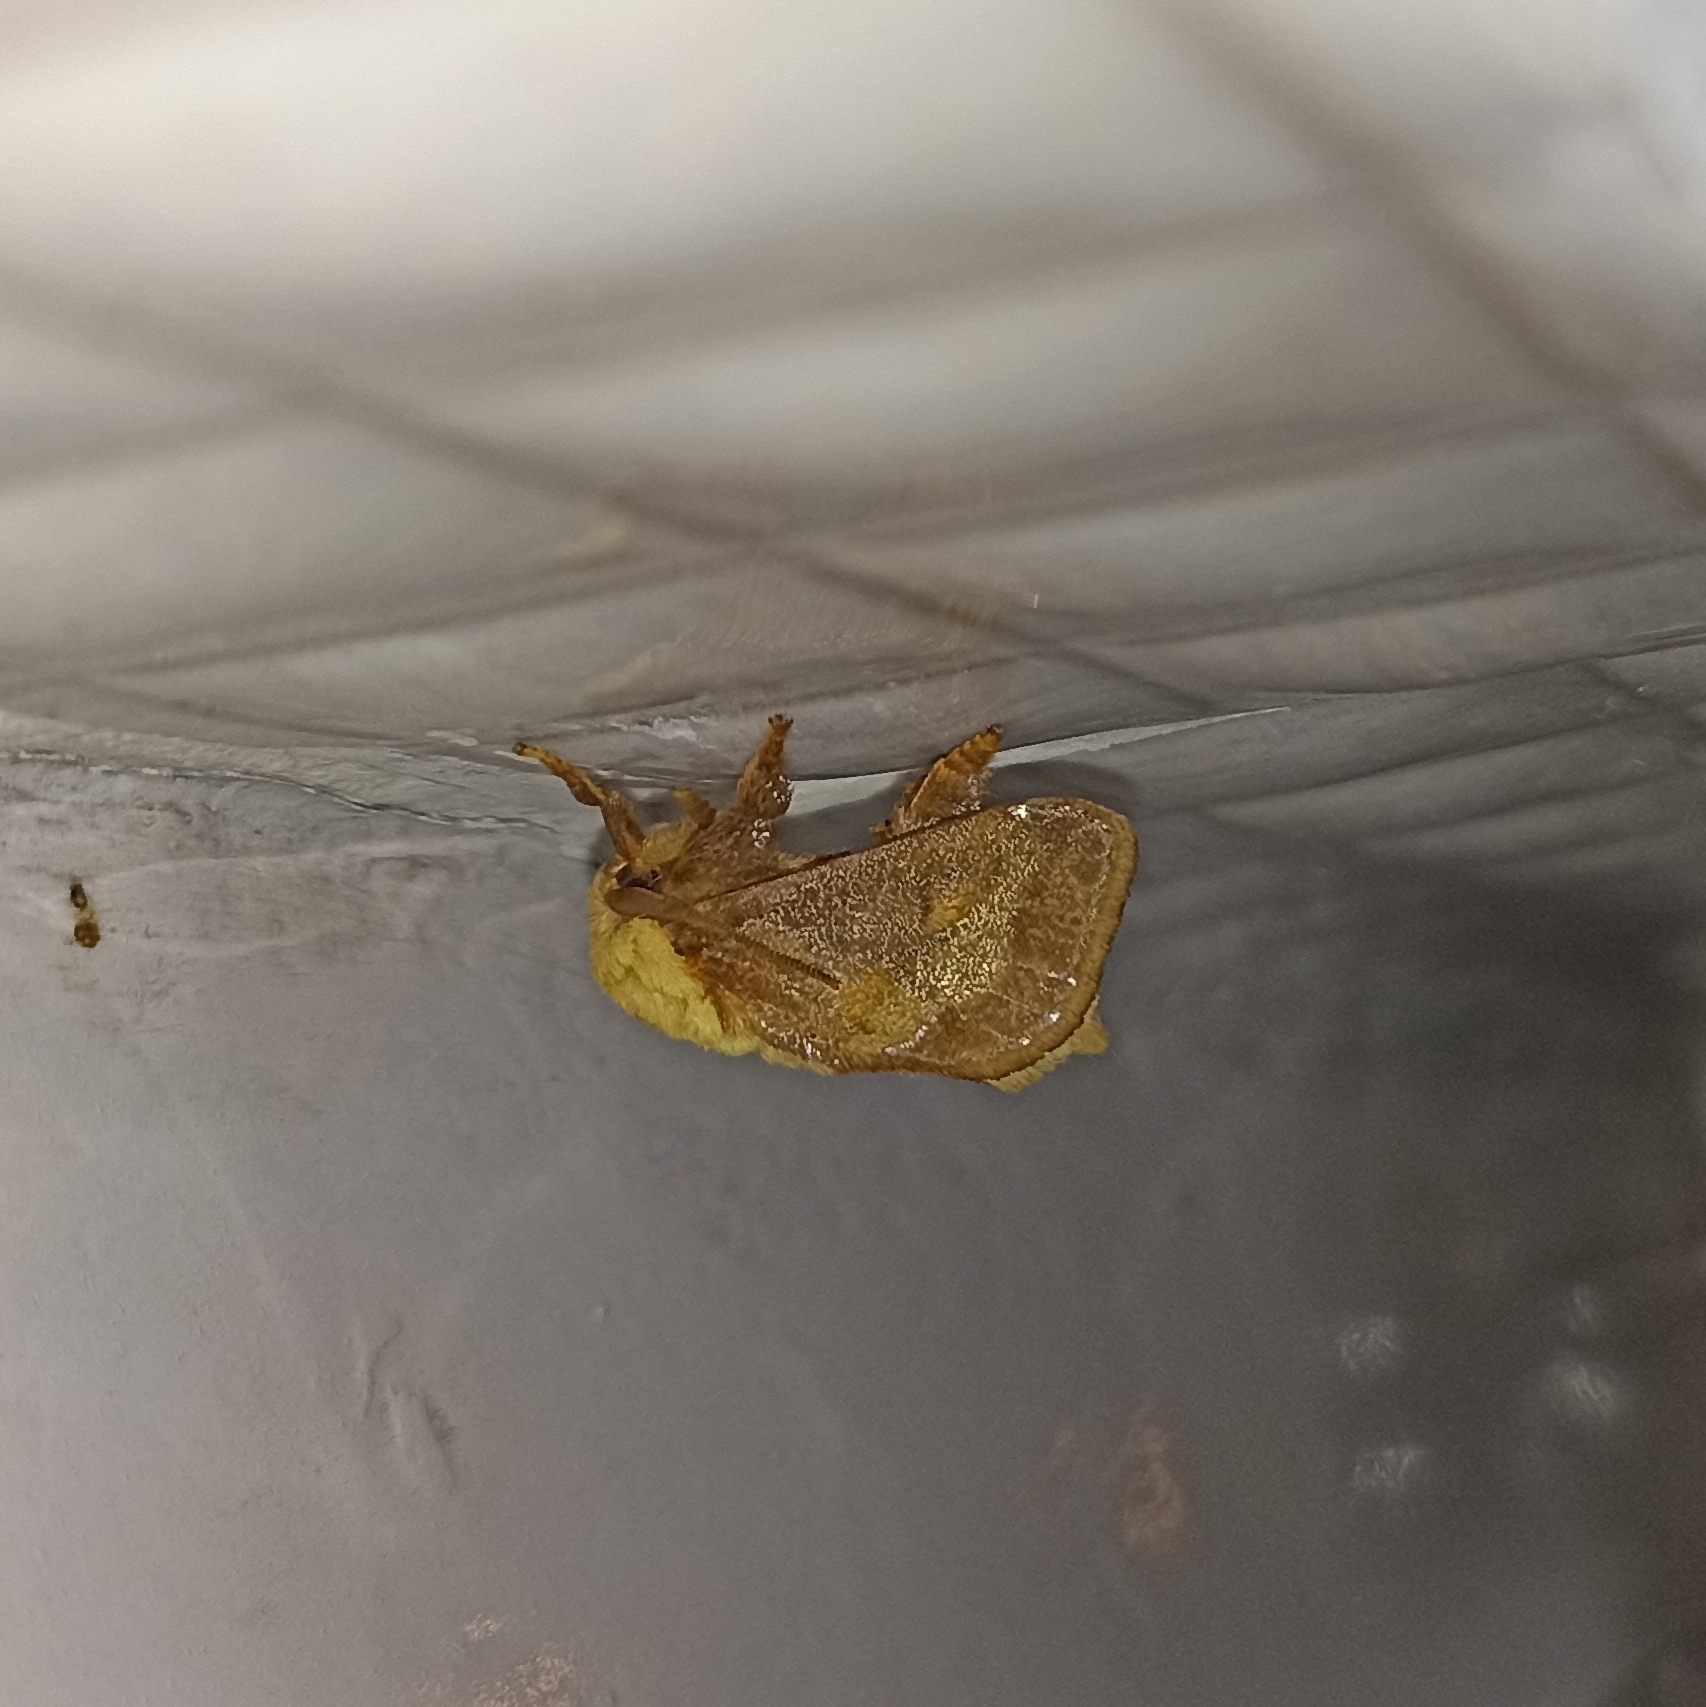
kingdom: Animalia
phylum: Arthropoda
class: Insecta
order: Lepidoptera
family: Limacodidae
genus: Miresa
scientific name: Miresa argentifera
